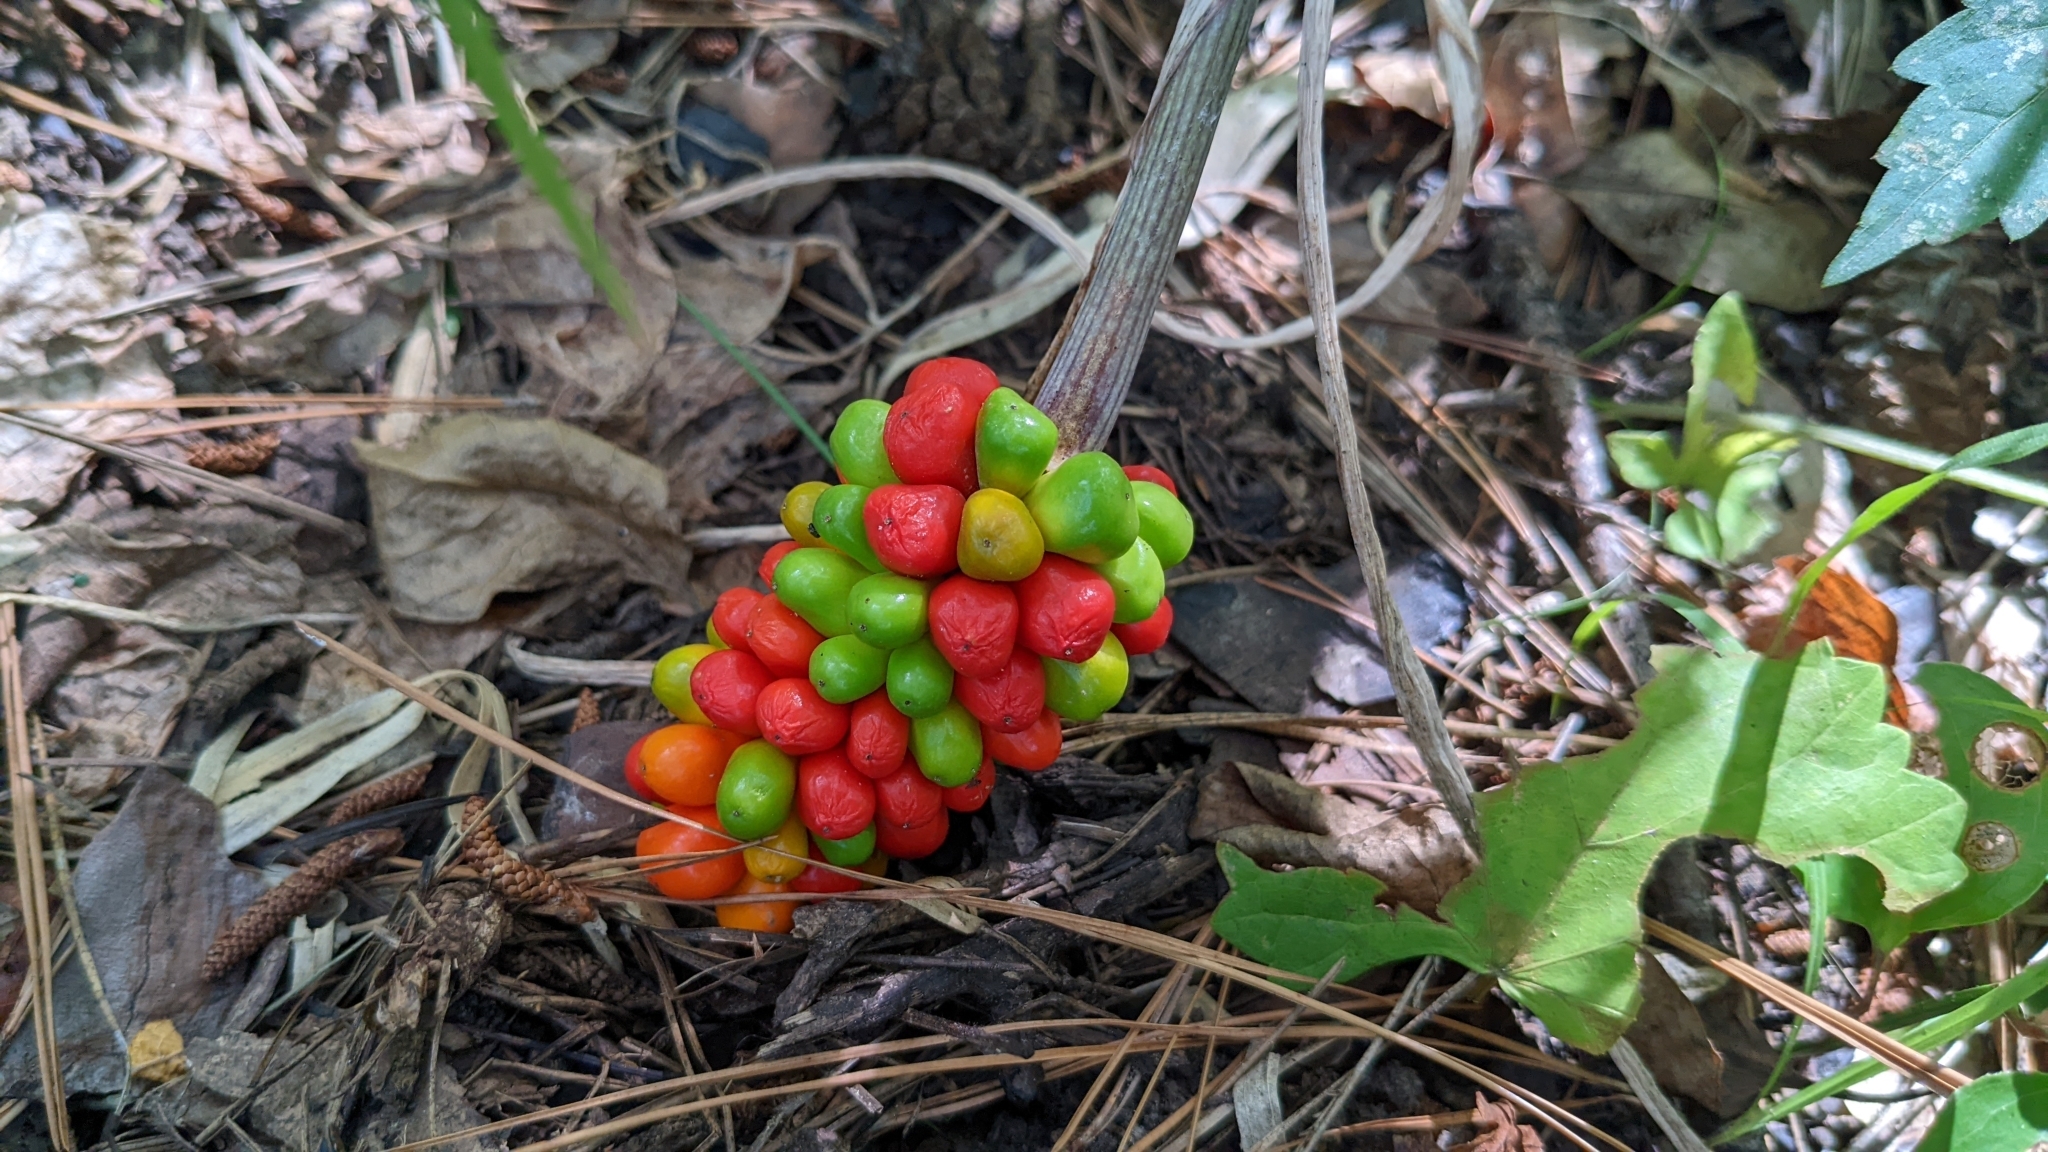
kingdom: Plantae
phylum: Tracheophyta
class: Liliopsida
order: Alismatales
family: Araceae
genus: Arisaema
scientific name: Arisaema triphyllum
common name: Jack-in-the-pulpit
